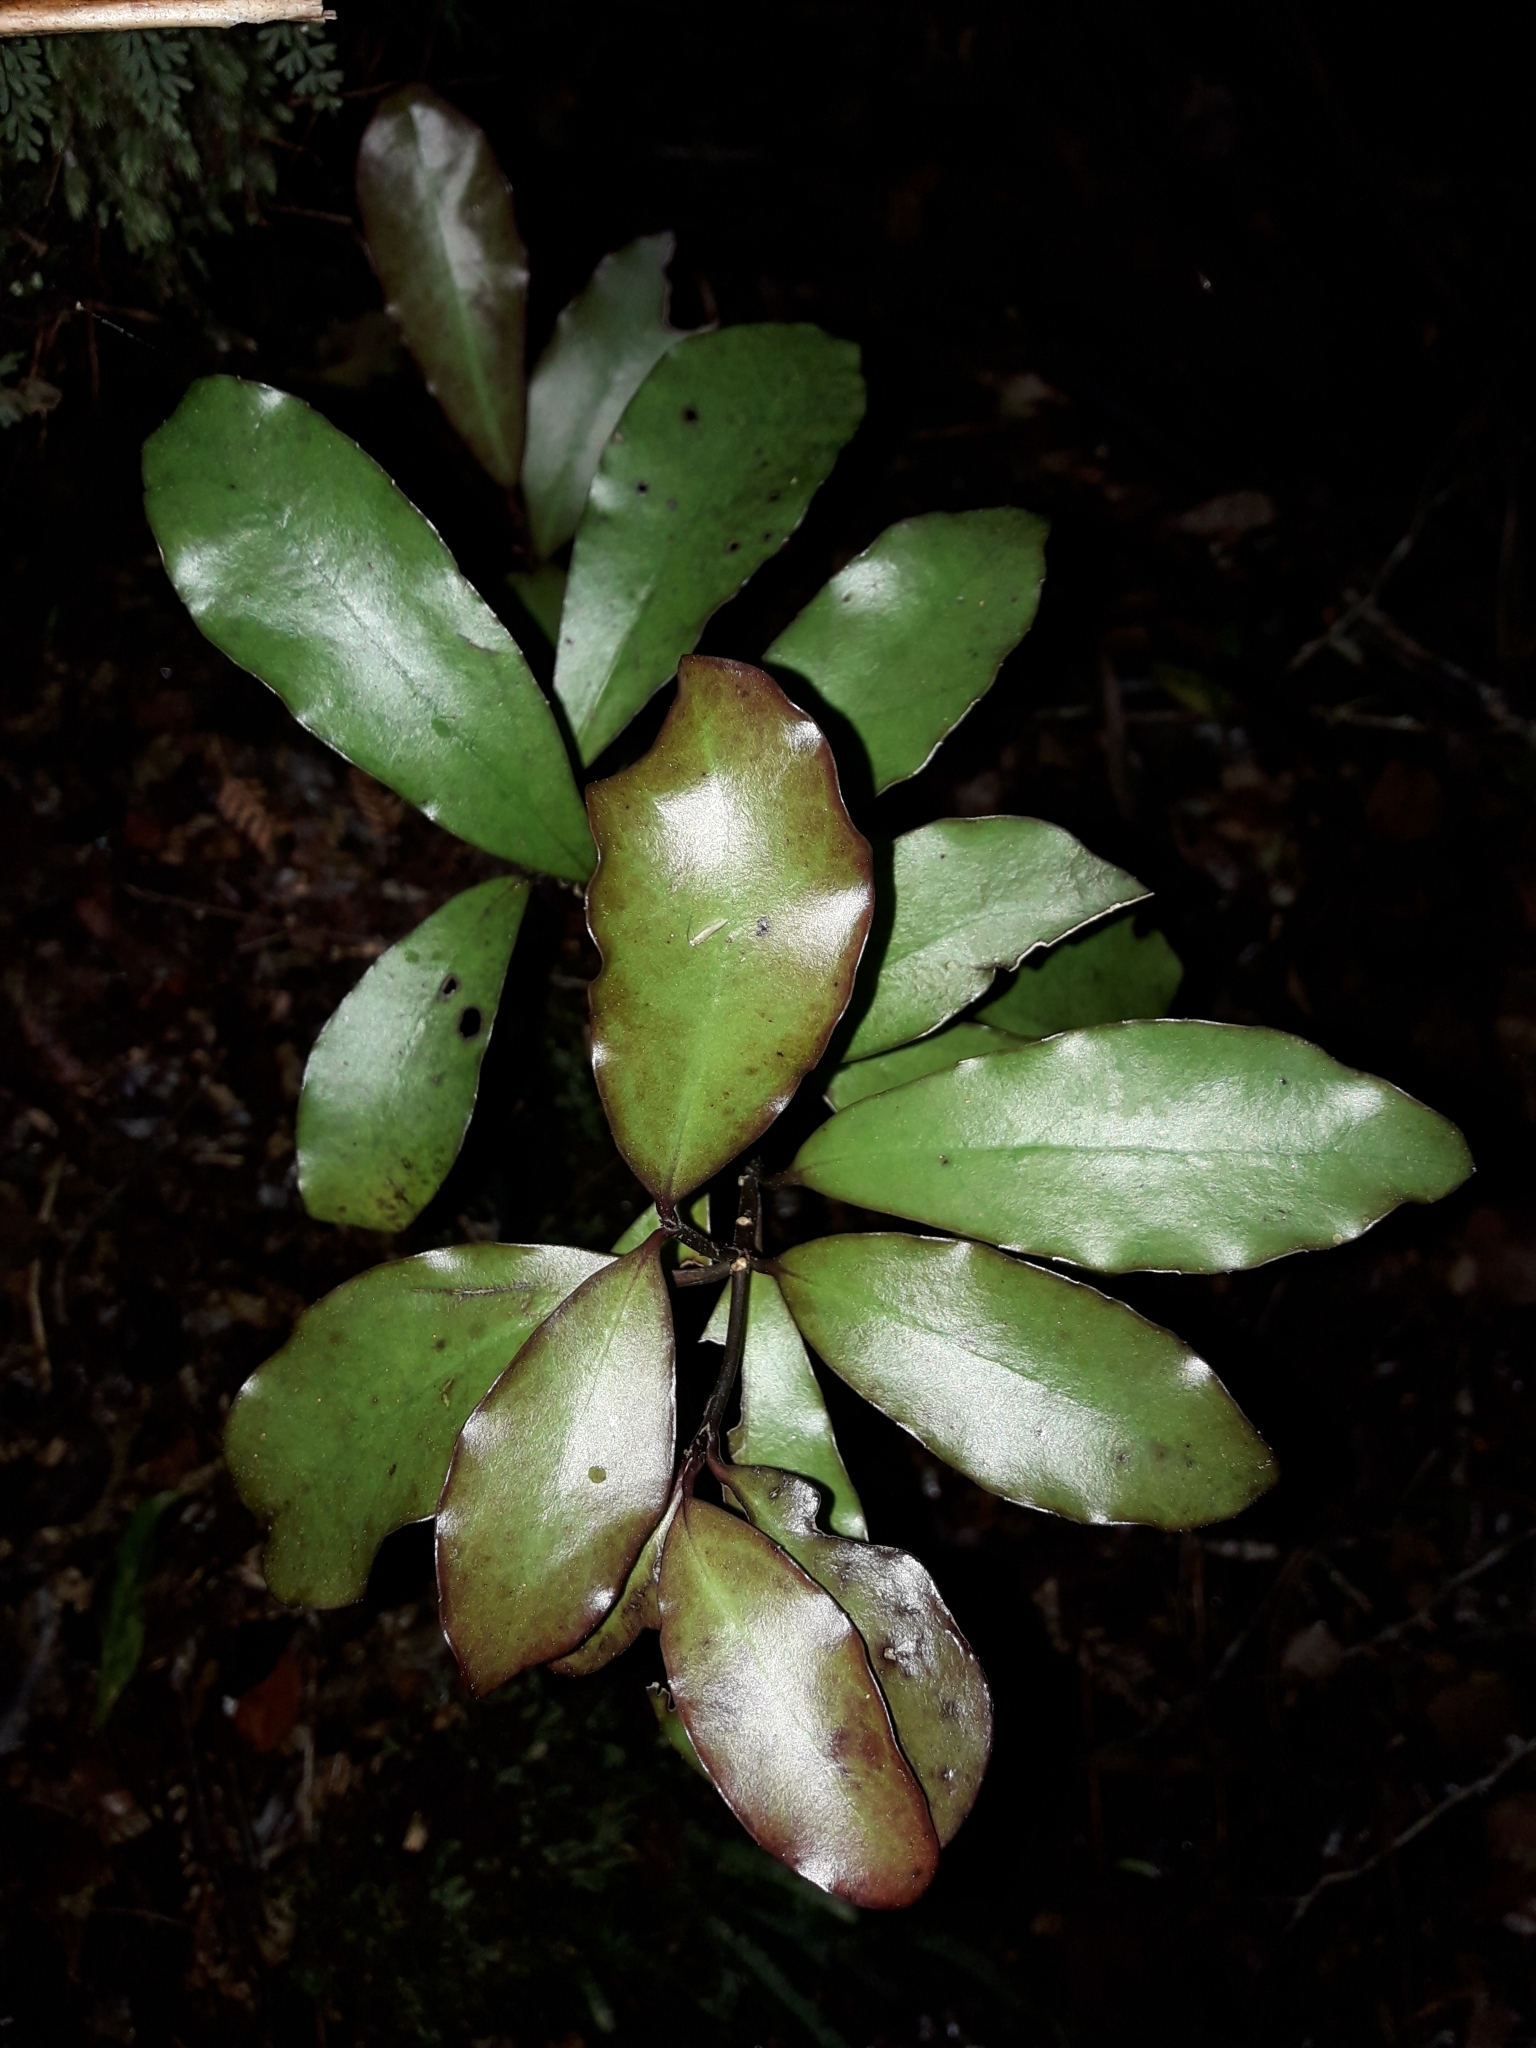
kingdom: Plantae
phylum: Tracheophyta
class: Magnoliopsida
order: Asterales
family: Alseuosmiaceae
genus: Alseuosmia
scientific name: Alseuosmia pusilla
